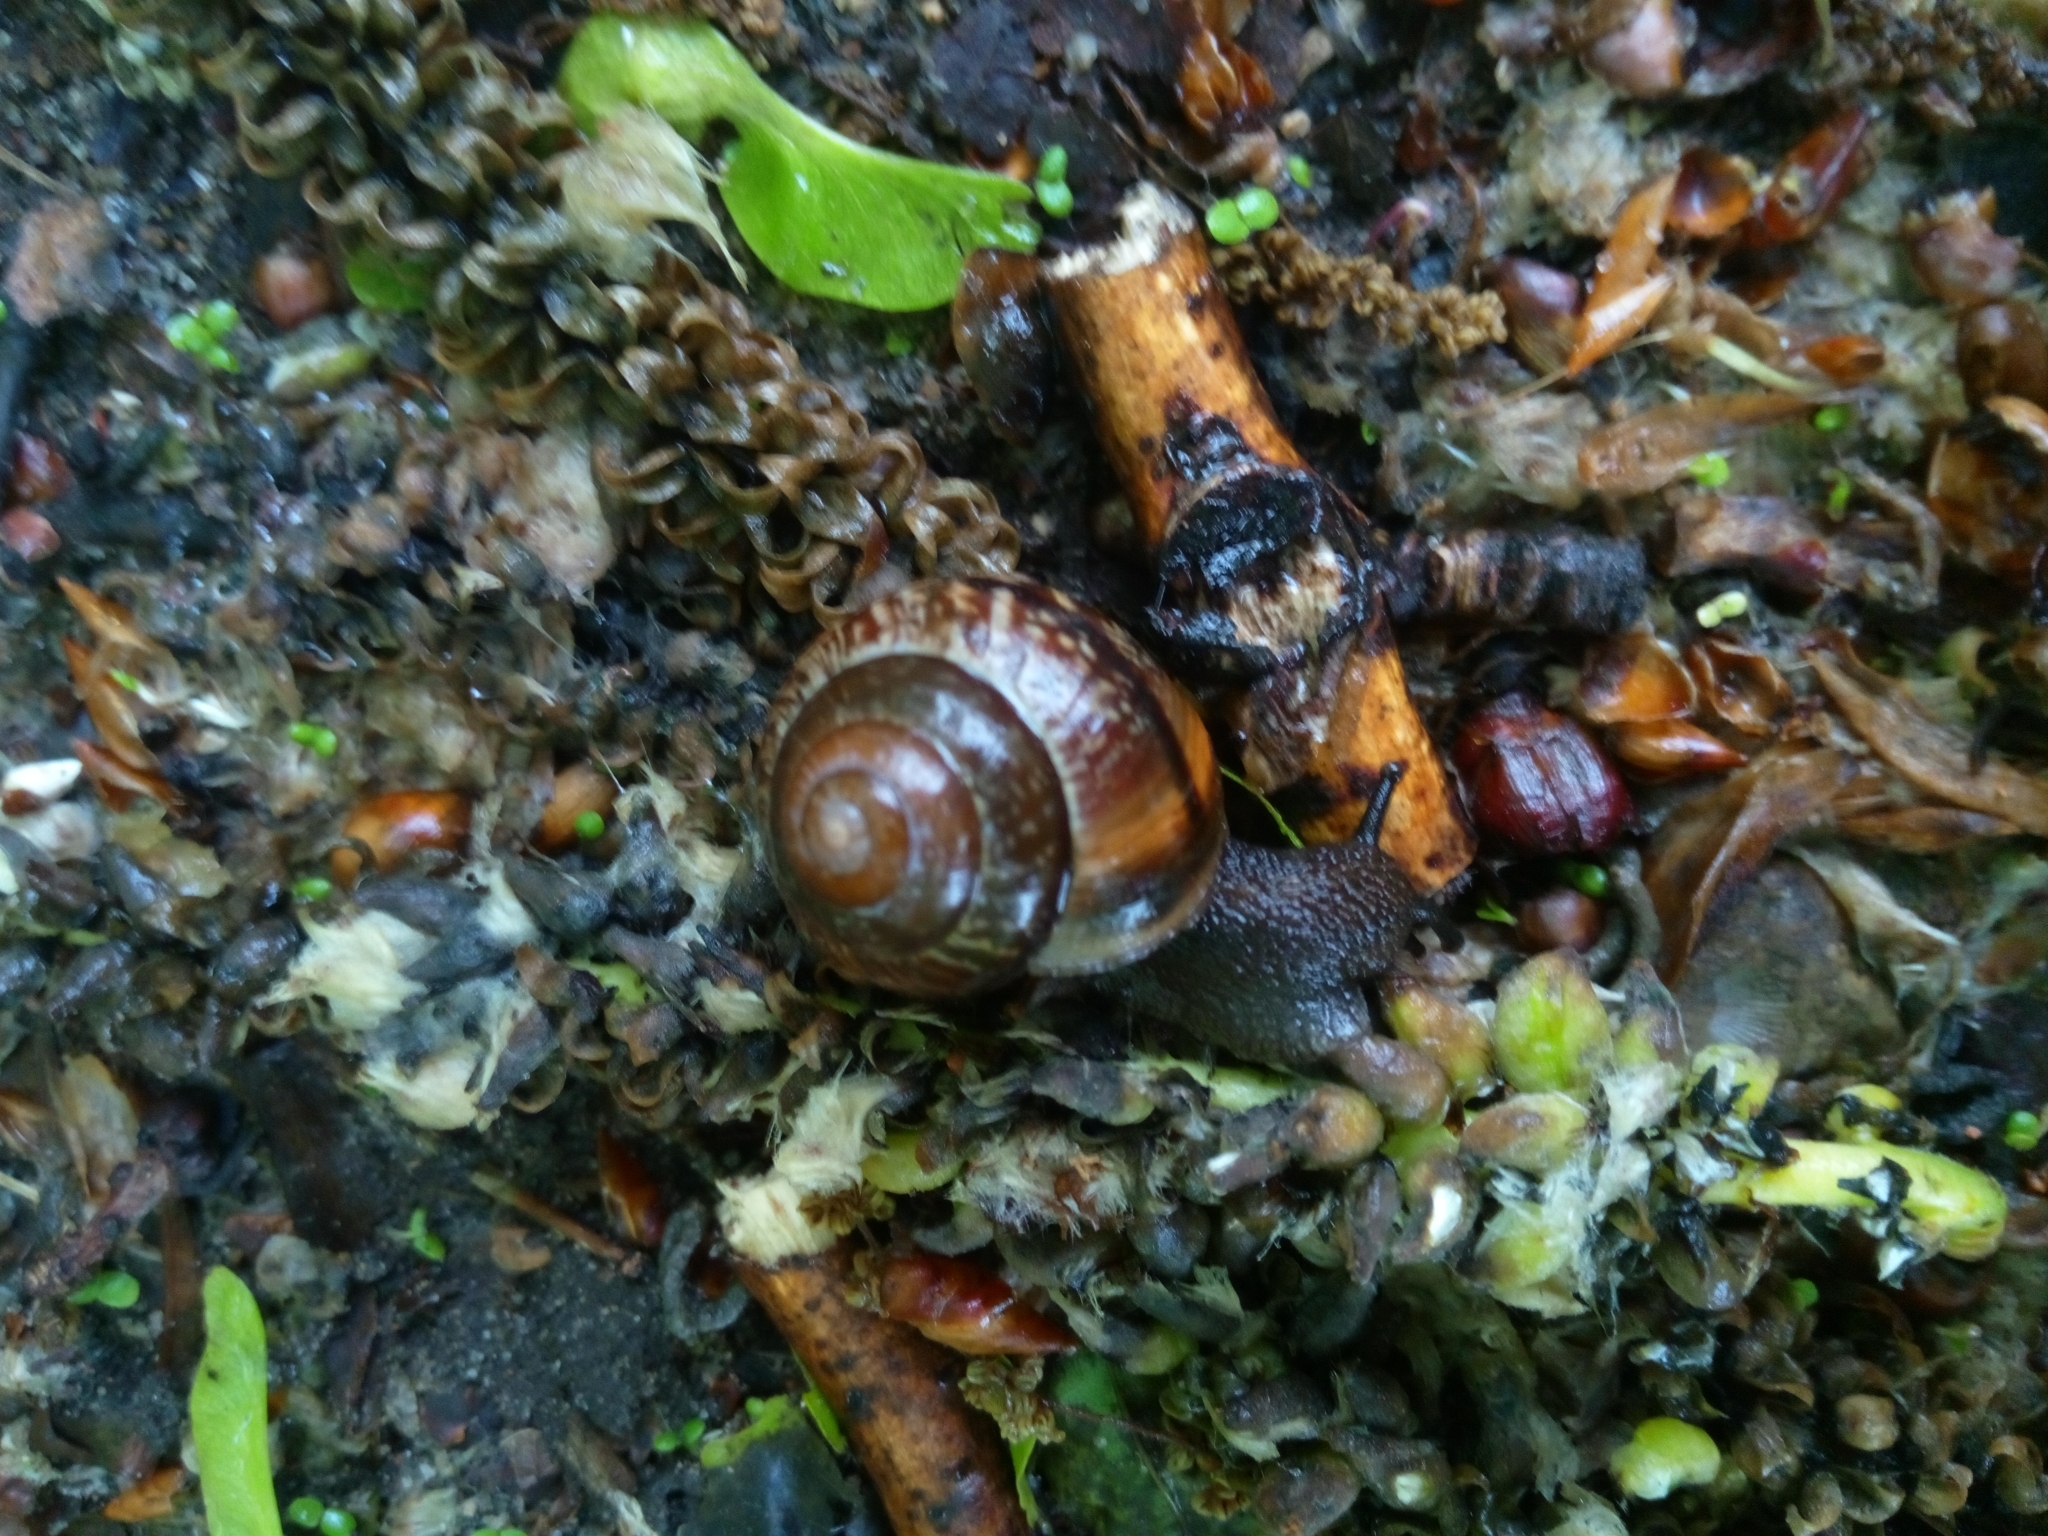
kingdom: Animalia
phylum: Mollusca
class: Gastropoda
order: Stylommatophora
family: Helicidae
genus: Arianta
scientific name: Arianta arbustorum
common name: Copse snail
